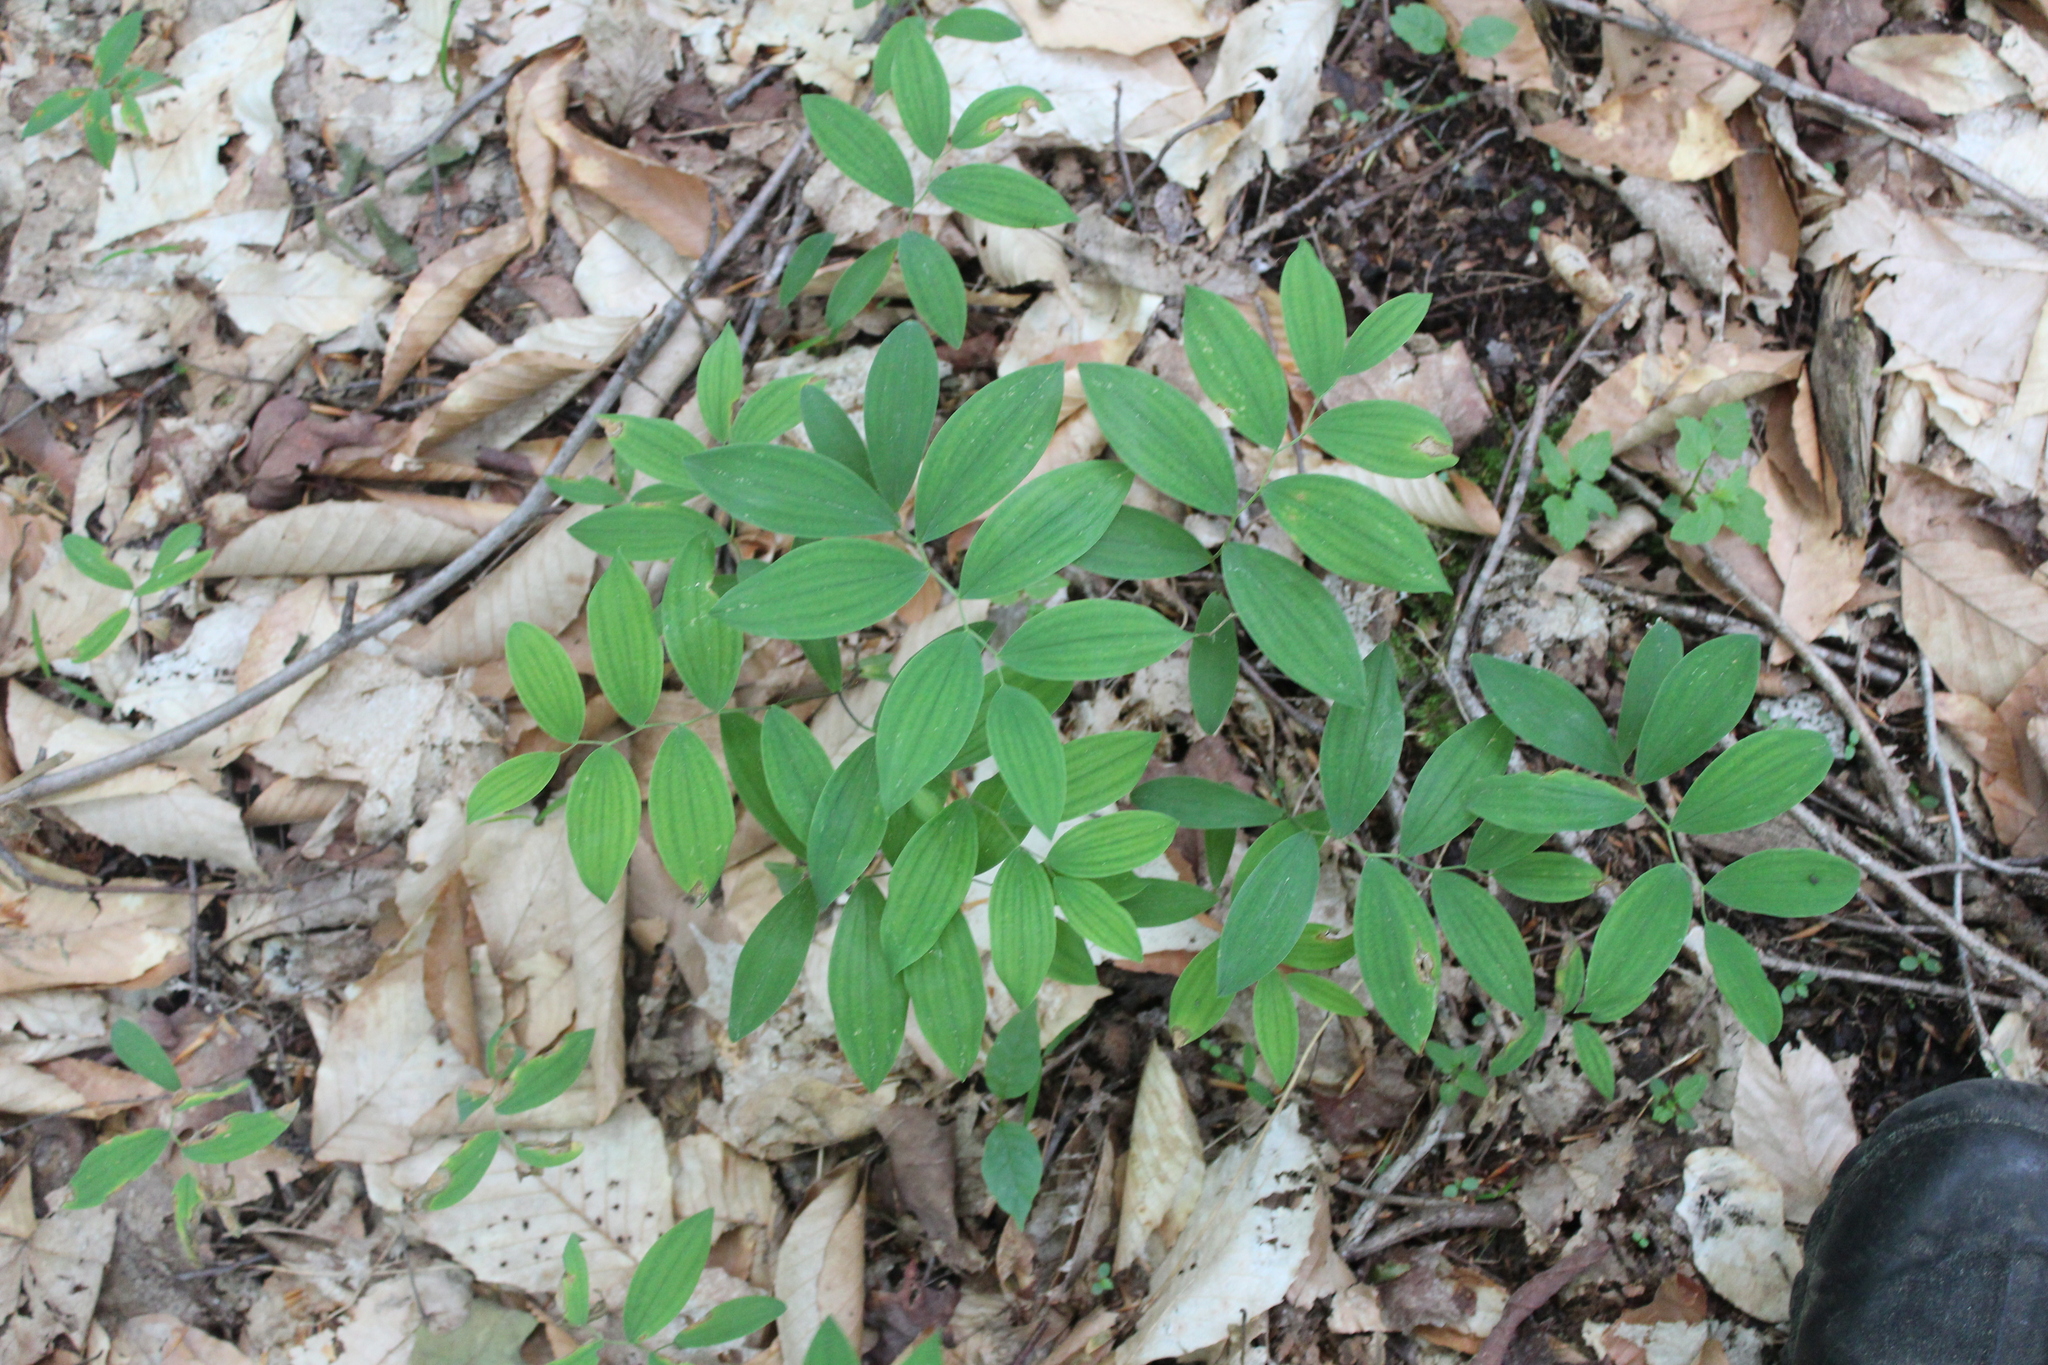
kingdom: Plantae
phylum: Tracheophyta
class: Liliopsida
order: Liliales
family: Colchicaceae
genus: Uvularia
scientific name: Uvularia sessilifolia
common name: Straw-lily
